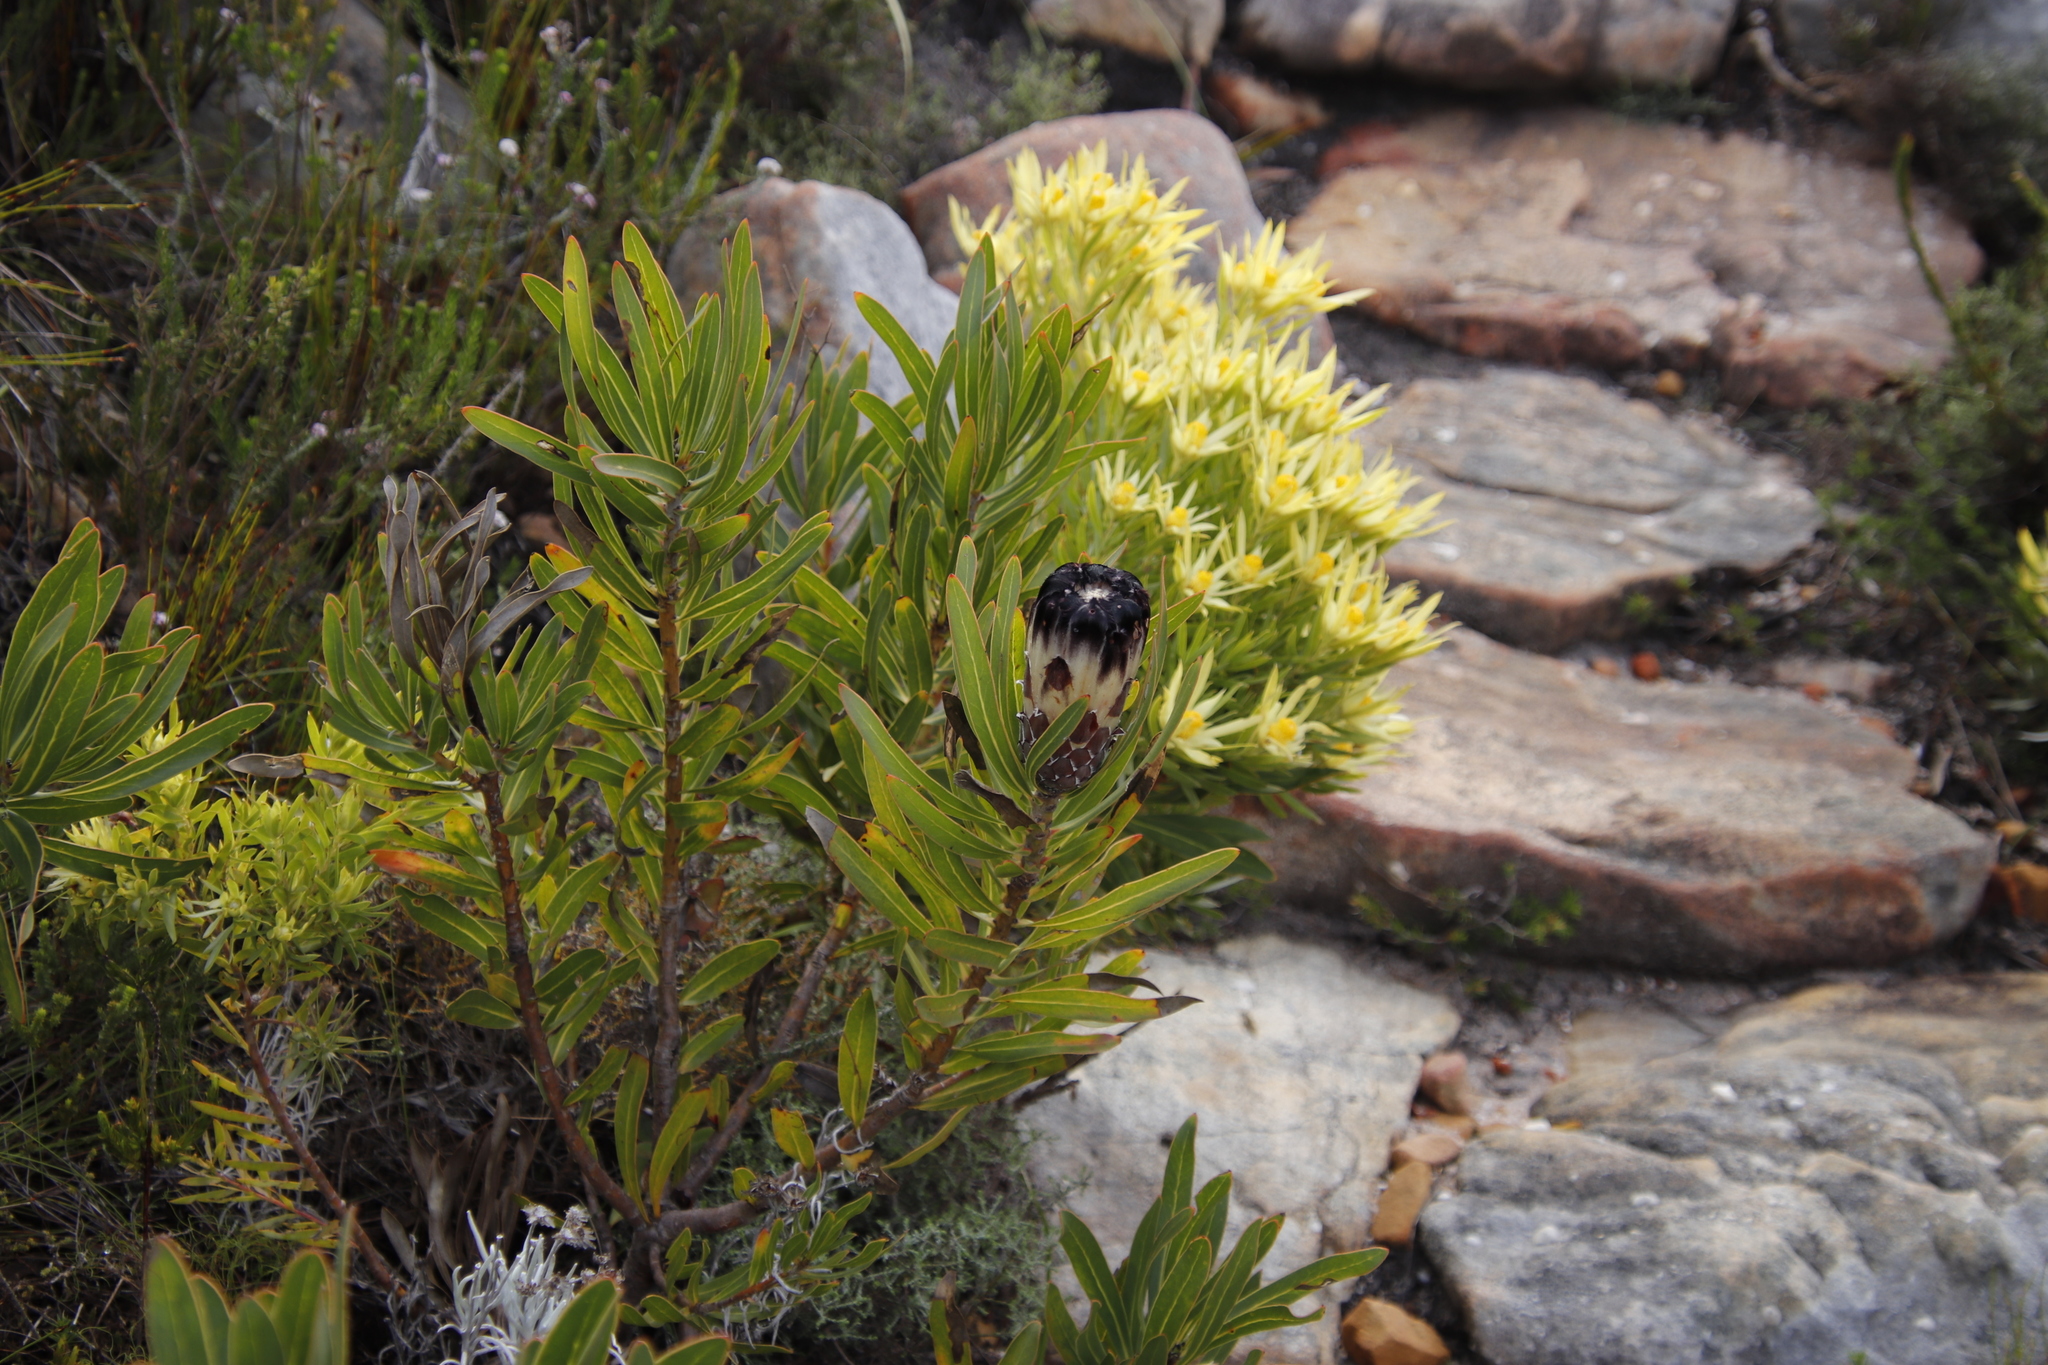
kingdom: Plantae
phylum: Tracheophyta
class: Magnoliopsida
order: Proteales
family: Proteaceae
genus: Protea
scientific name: Protea lepidocarpodendron
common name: Black-bearded protea
